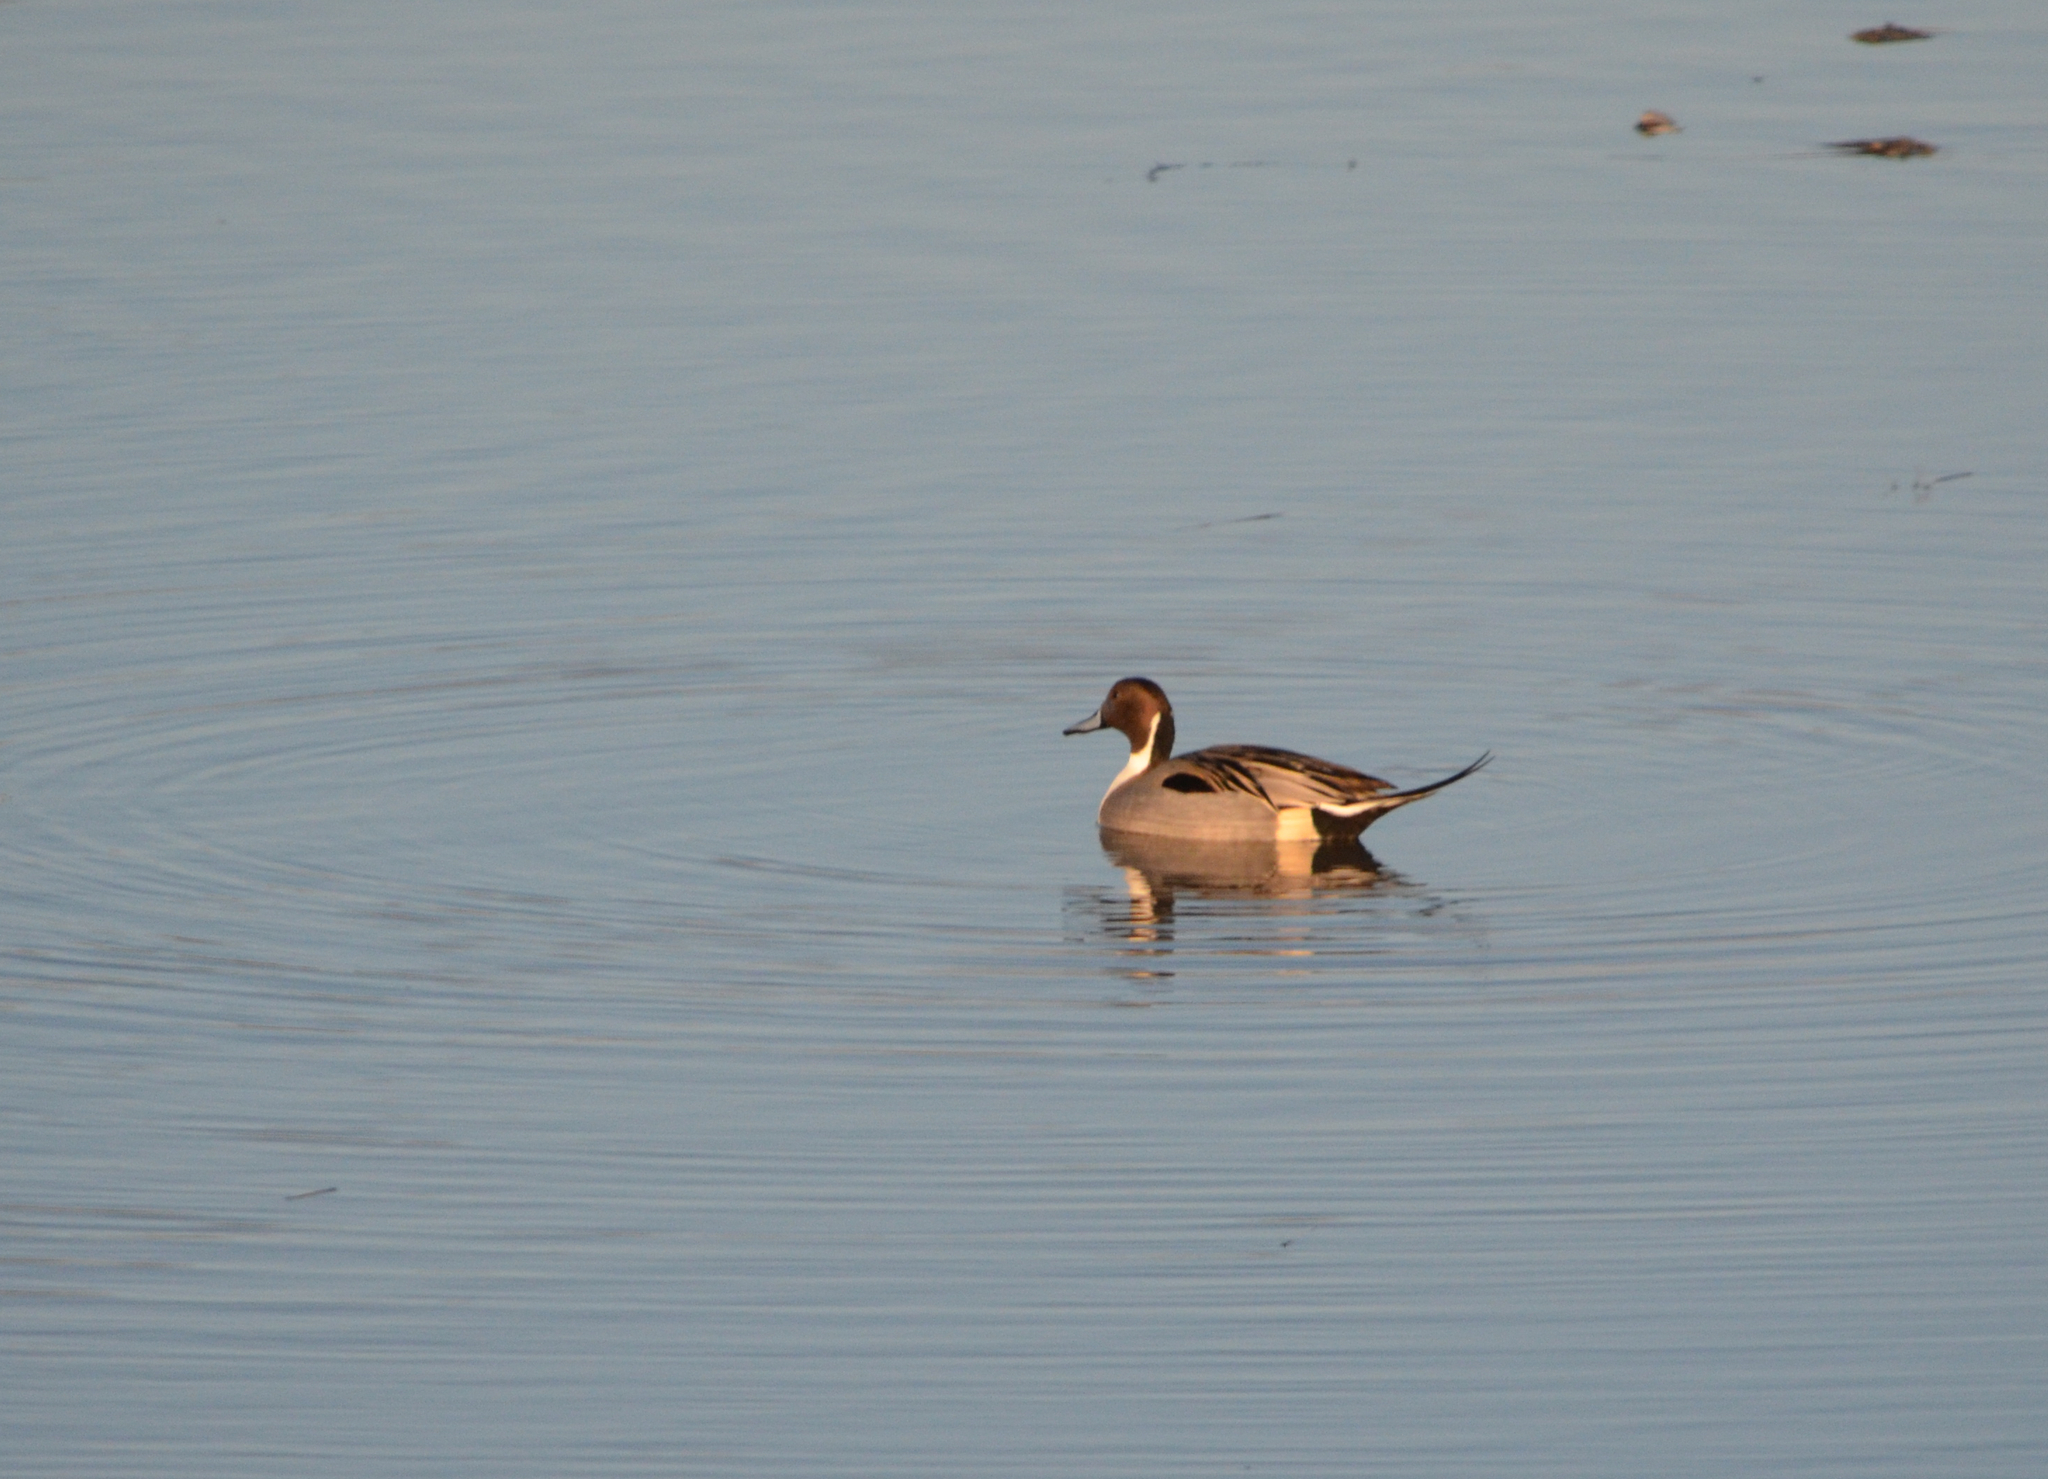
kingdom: Animalia
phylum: Chordata
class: Aves
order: Anseriformes
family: Anatidae
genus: Anas
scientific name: Anas acuta
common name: Northern pintail
